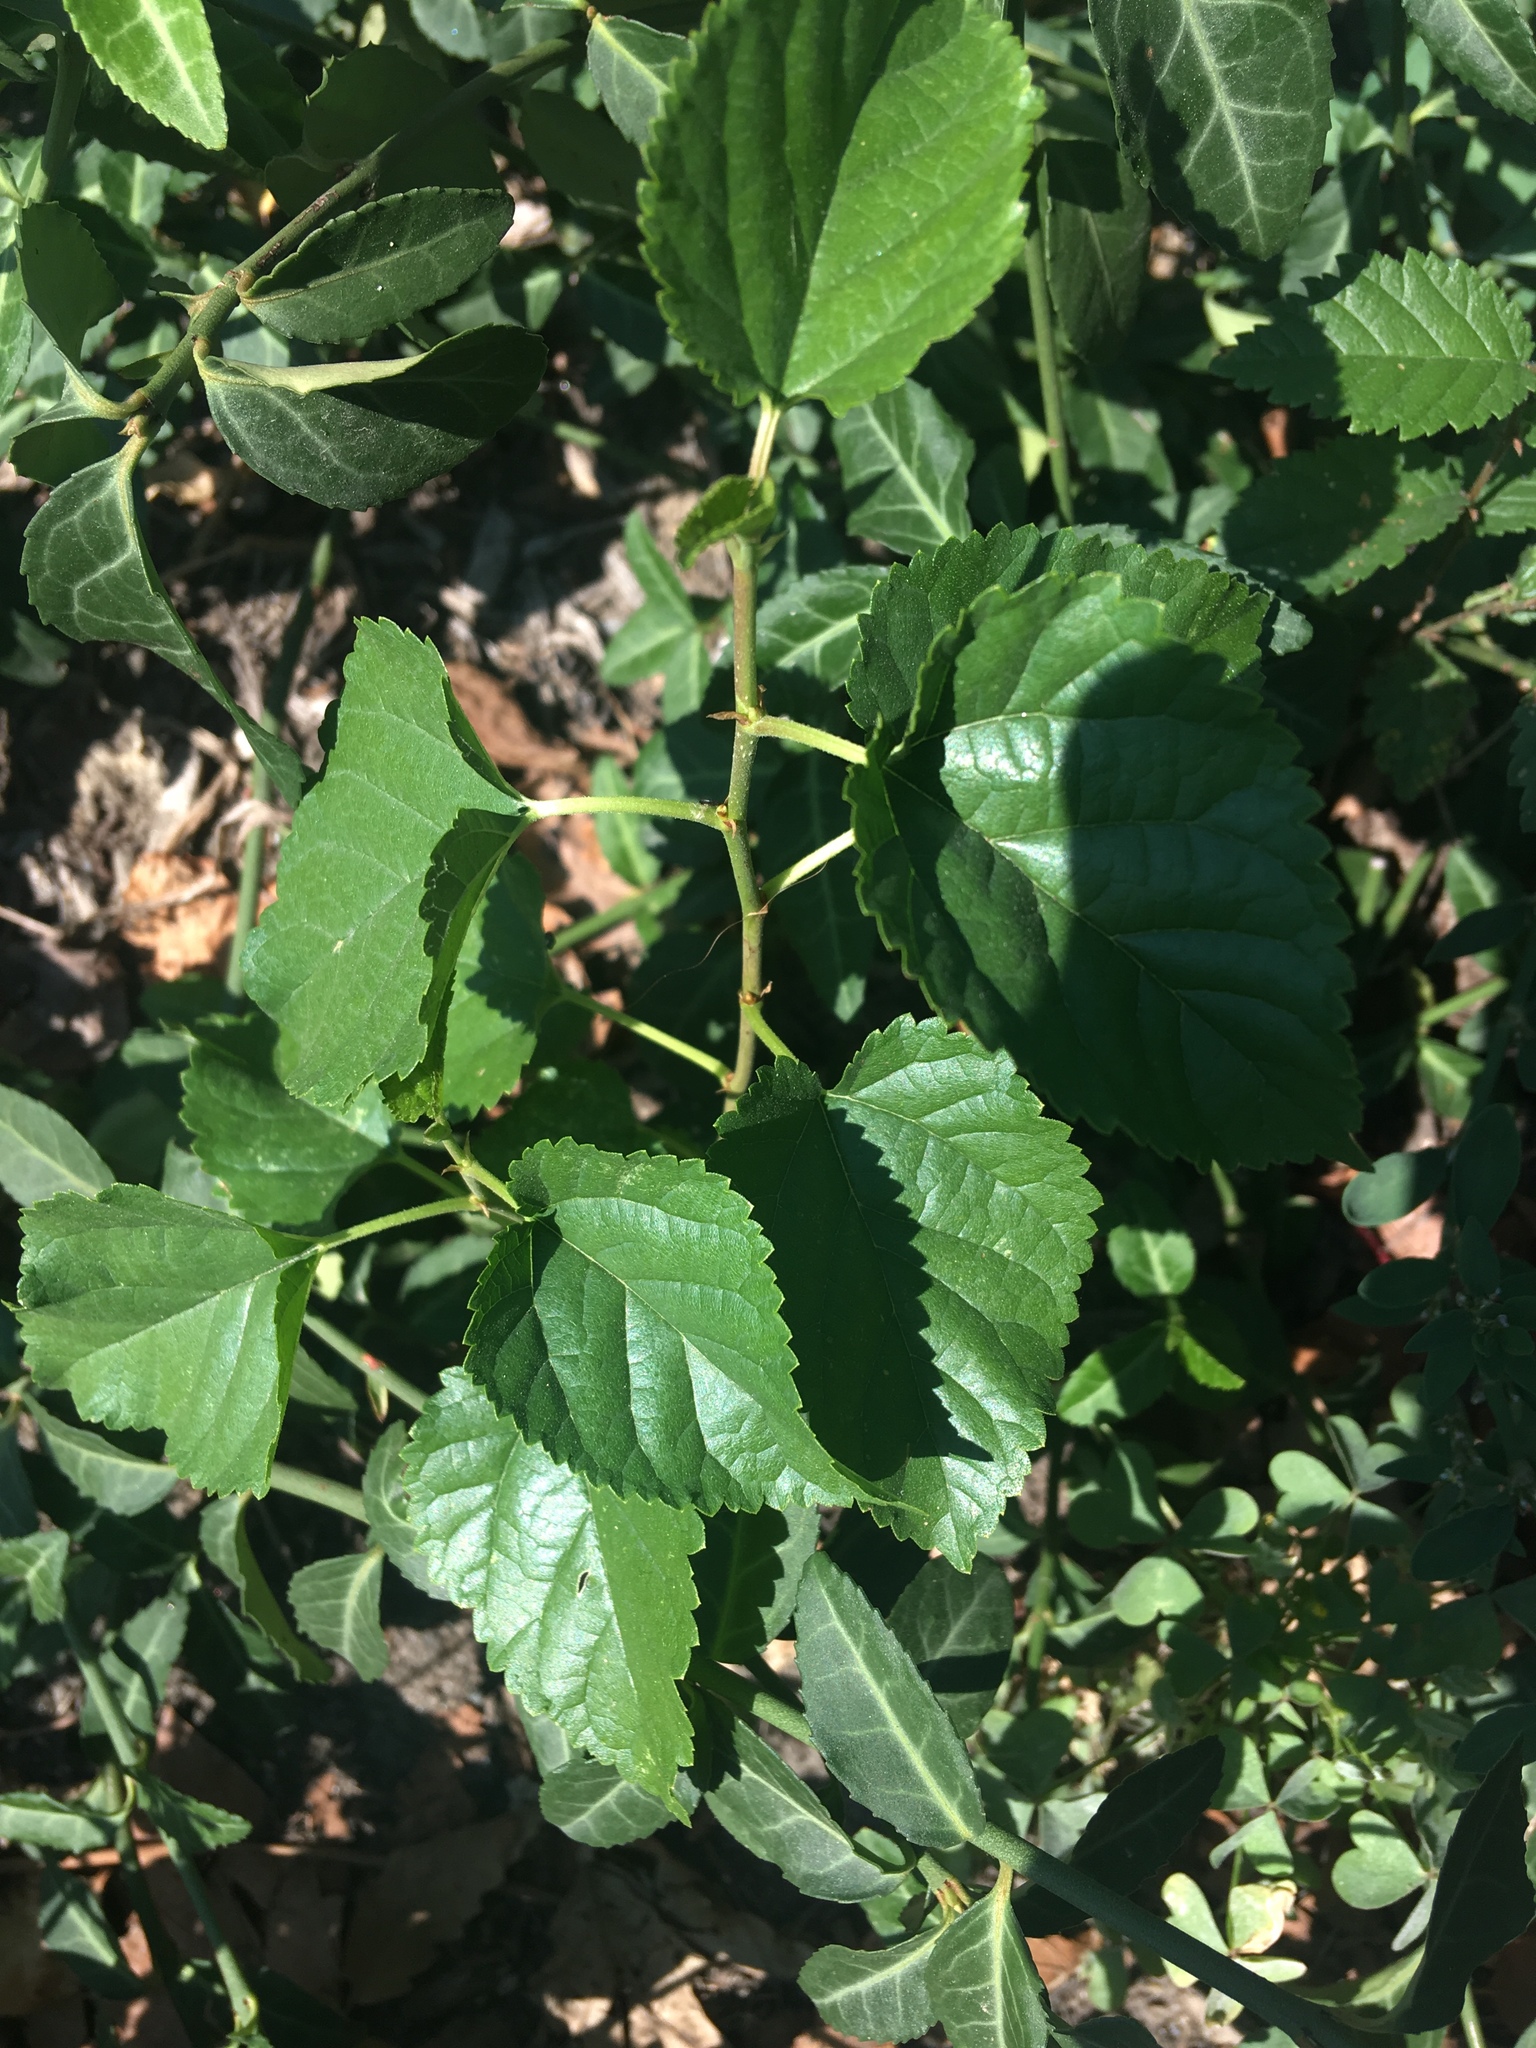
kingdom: Plantae
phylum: Tracheophyta
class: Magnoliopsida
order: Rosales
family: Moraceae
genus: Morus
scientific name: Morus alba
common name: White mulberry
